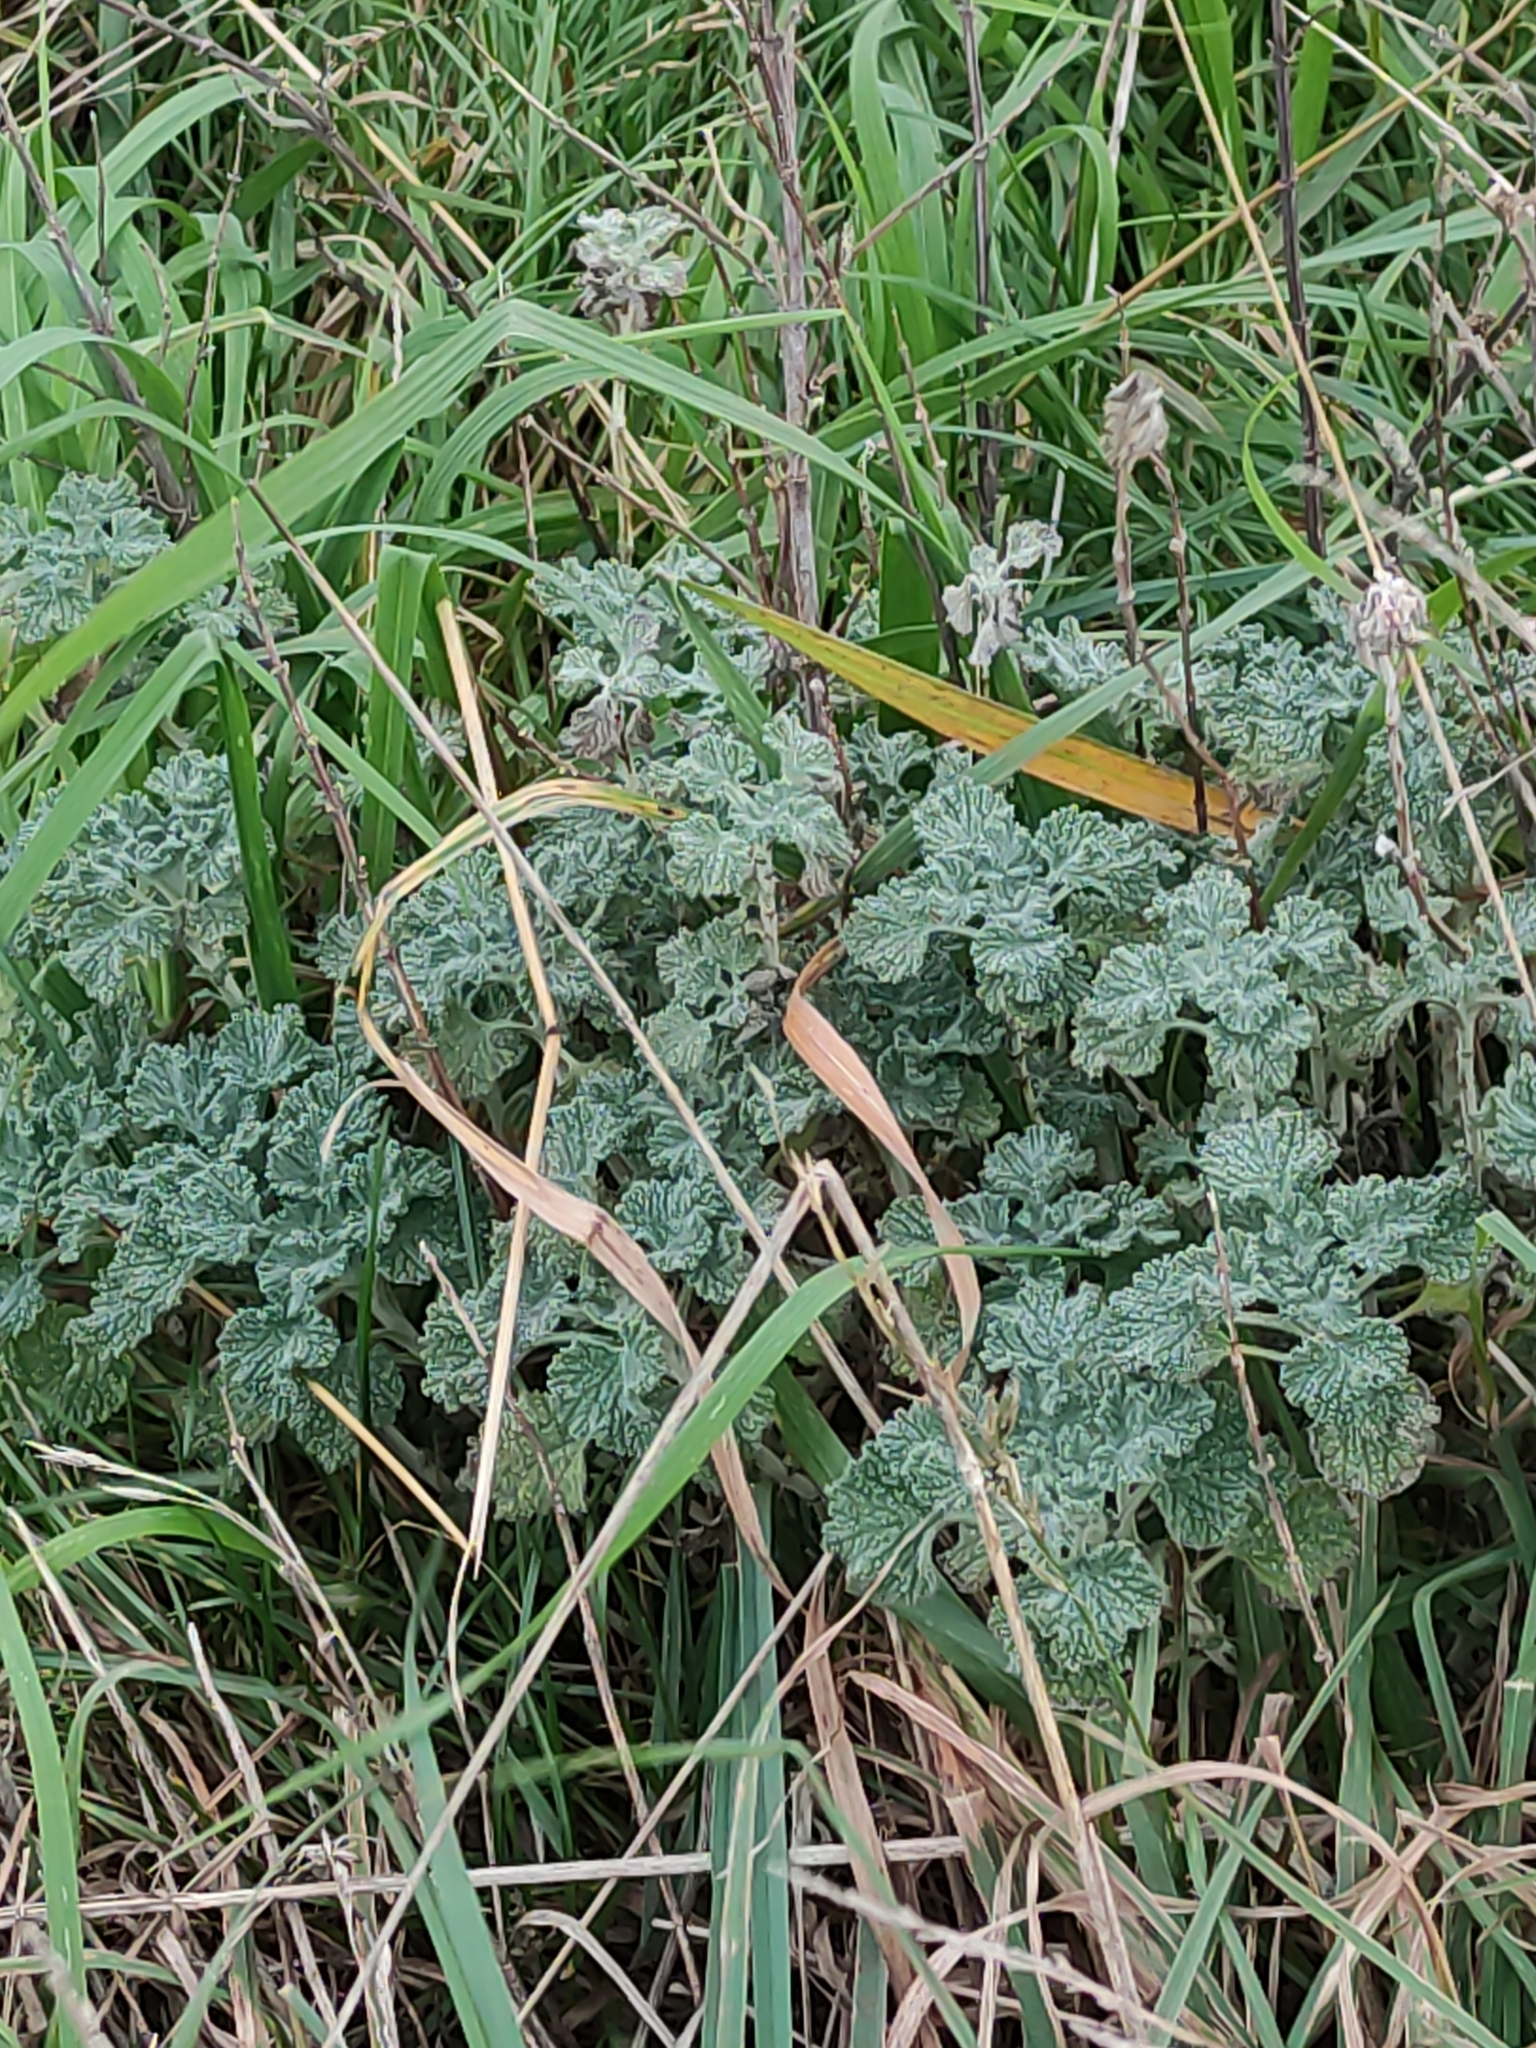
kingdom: Plantae
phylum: Tracheophyta
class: Magnoliopsida
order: Lamiales
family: Lamiaceae
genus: Marrubium
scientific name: Marrubium vulgare
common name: Horehound
